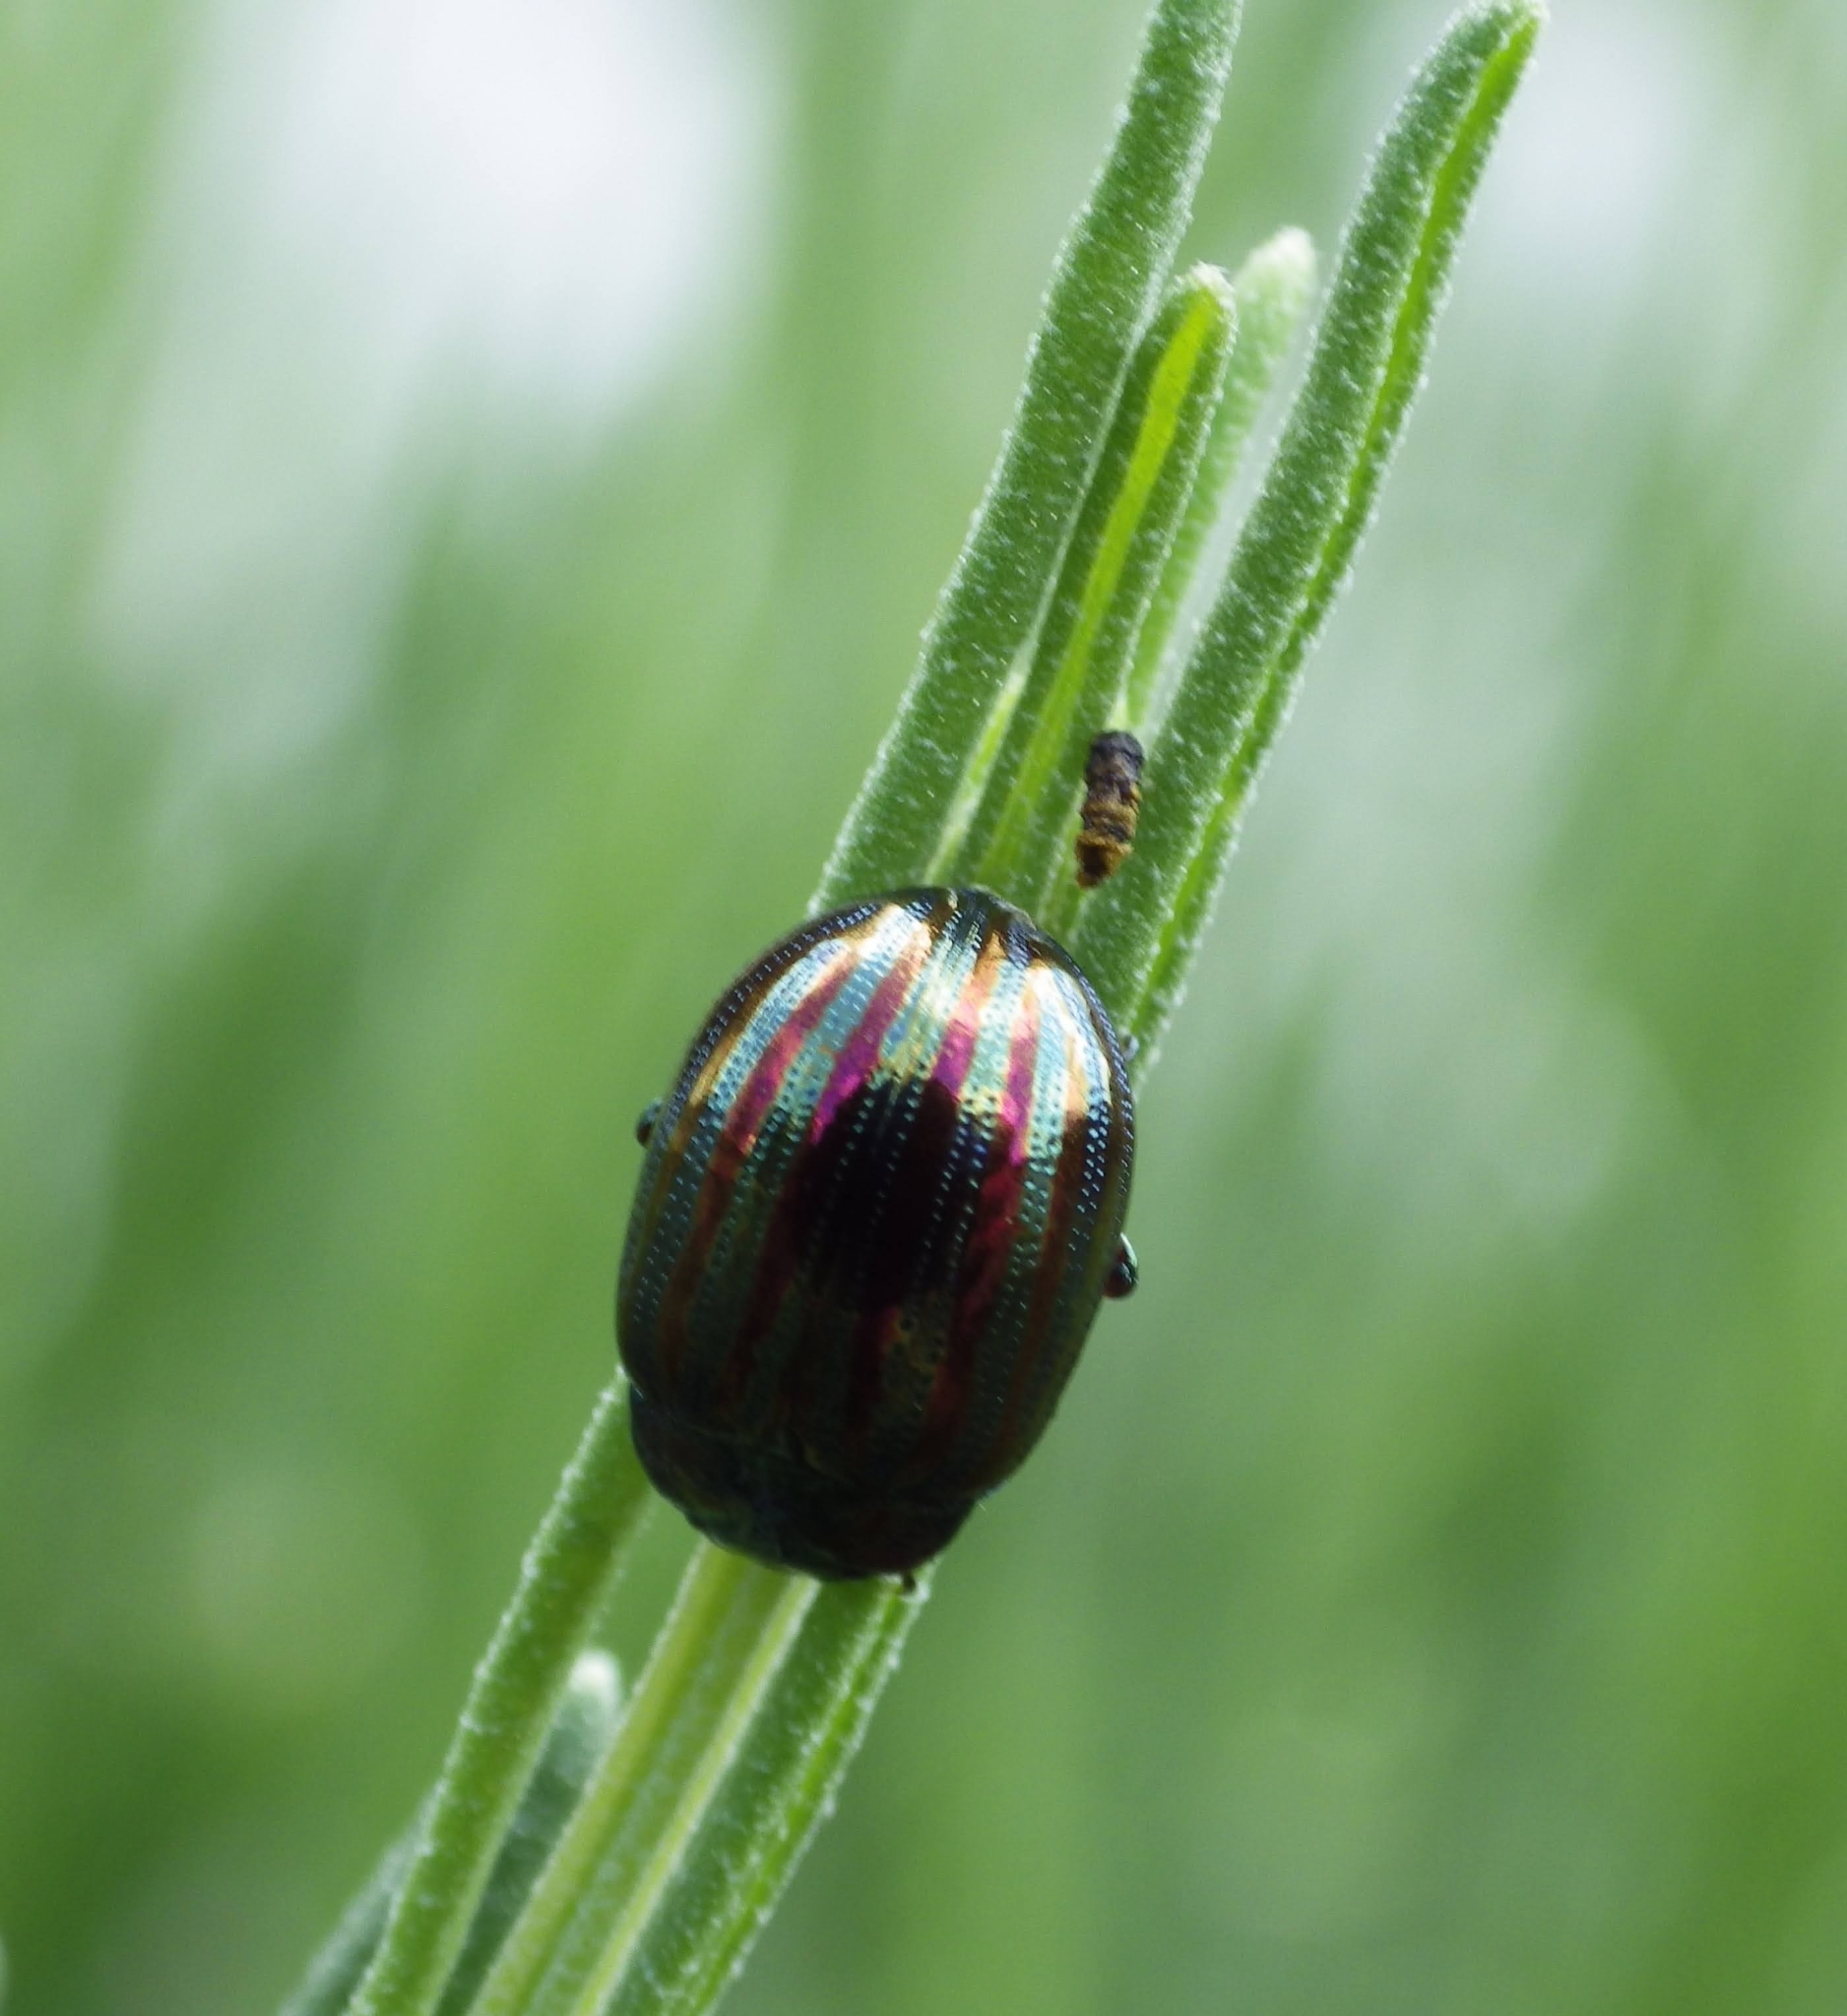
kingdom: Animalia
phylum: Arthropoda
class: Insecta
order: Coleoptera
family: Chrysomelidae
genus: Chrysolina
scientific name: Chrysolina americana
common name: Rosemary beetle
